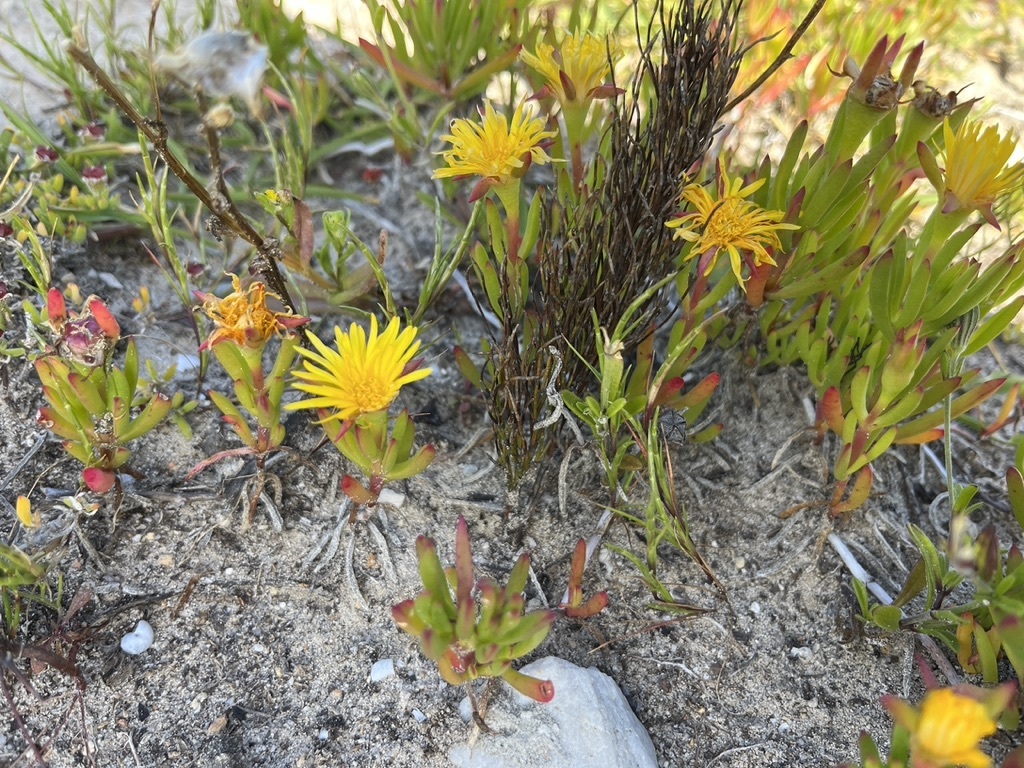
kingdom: Plantae
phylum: Tracheophyta
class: Magnoliopsida
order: Caryophyllales
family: Aizoaceae
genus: Lampranthus
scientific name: Lampranthus bicolor
